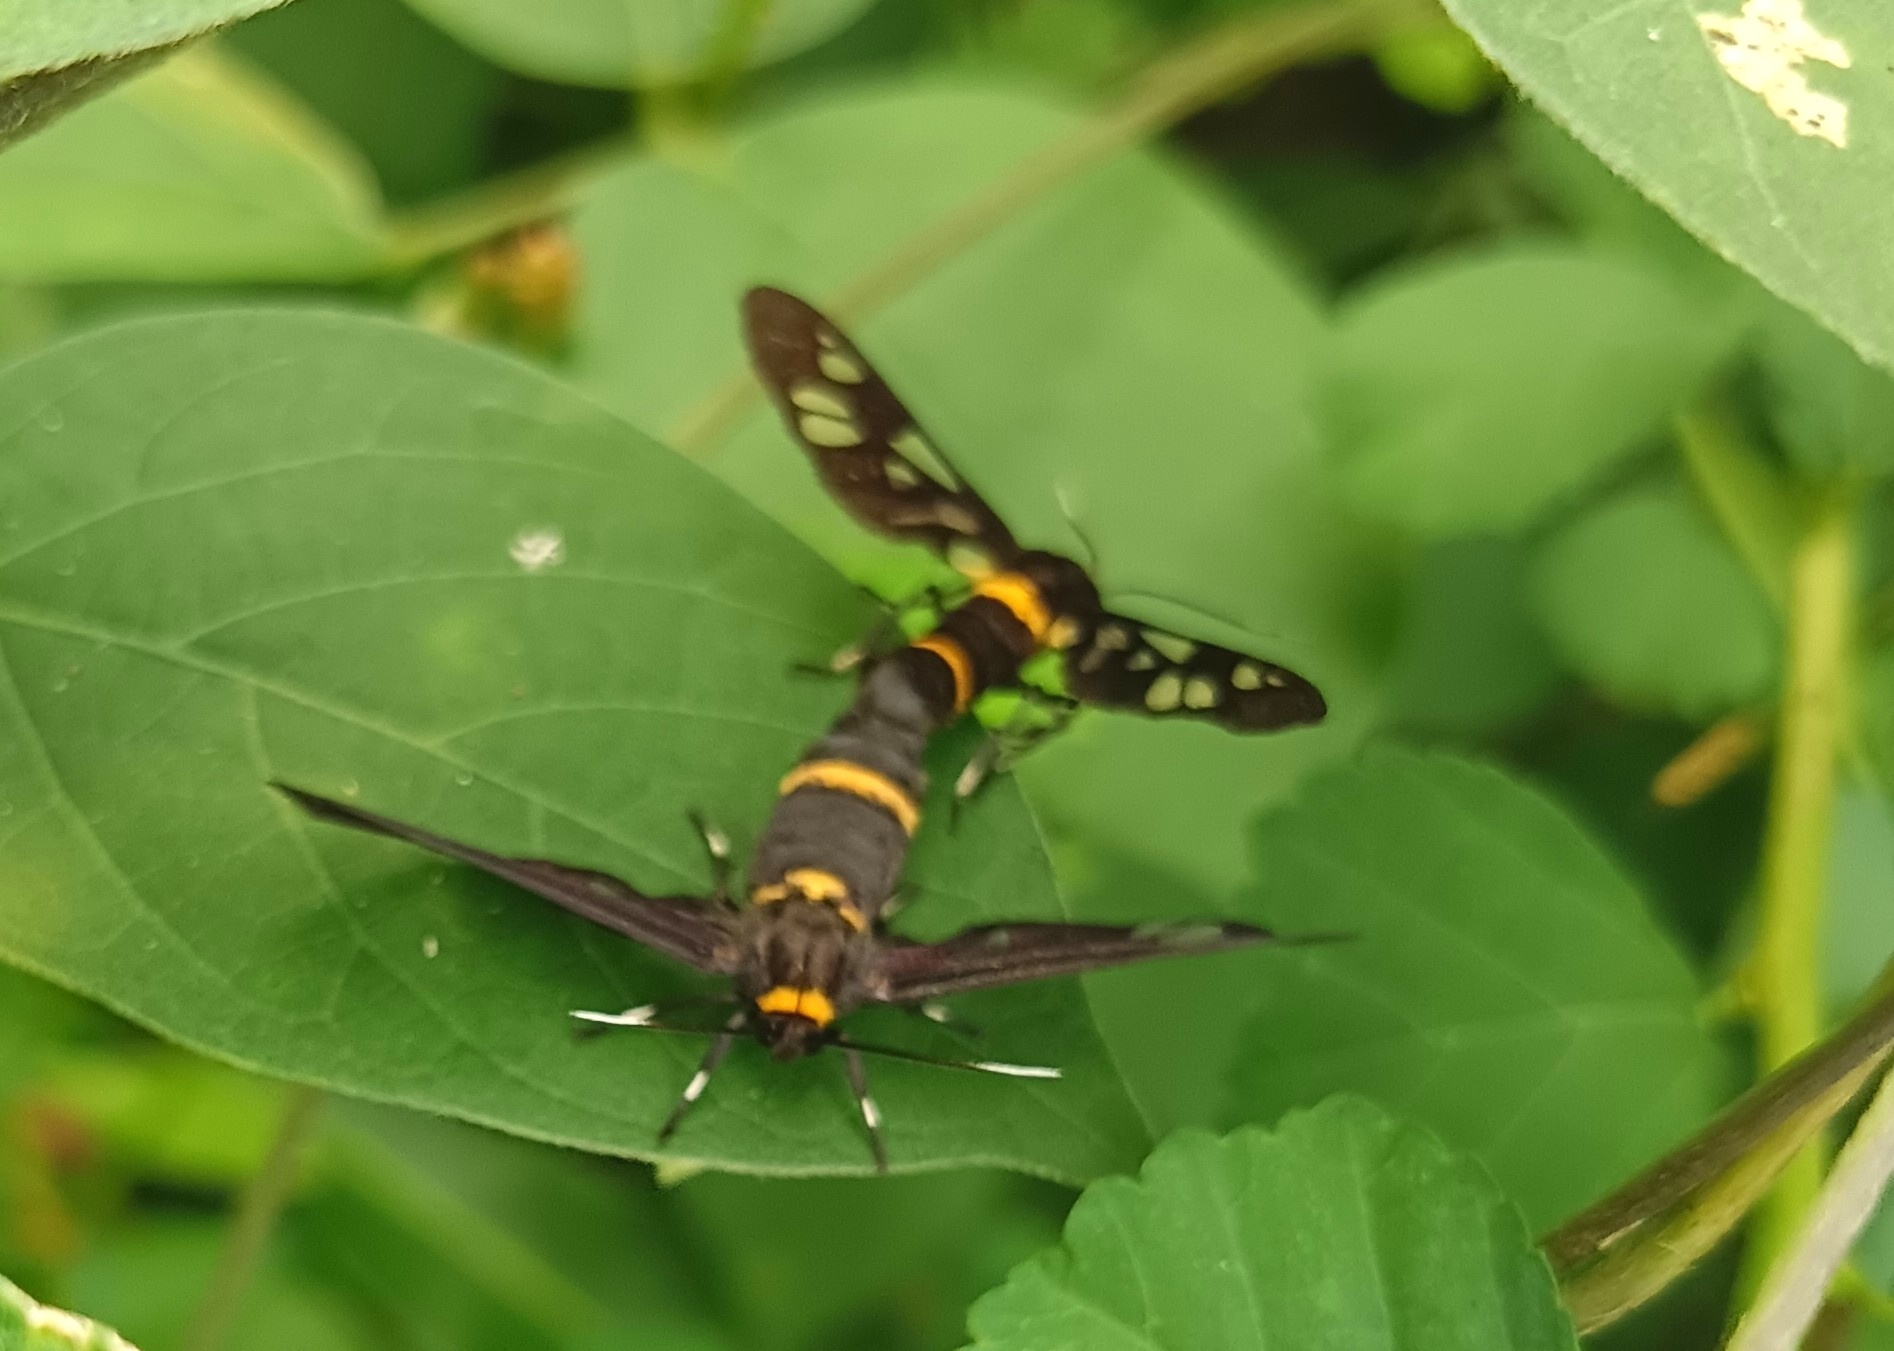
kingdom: Animalia
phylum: Arthropoda
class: Insecta
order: Lepidoptera
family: Erebidae
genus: Syntomoides
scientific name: Syntomoides imaon
